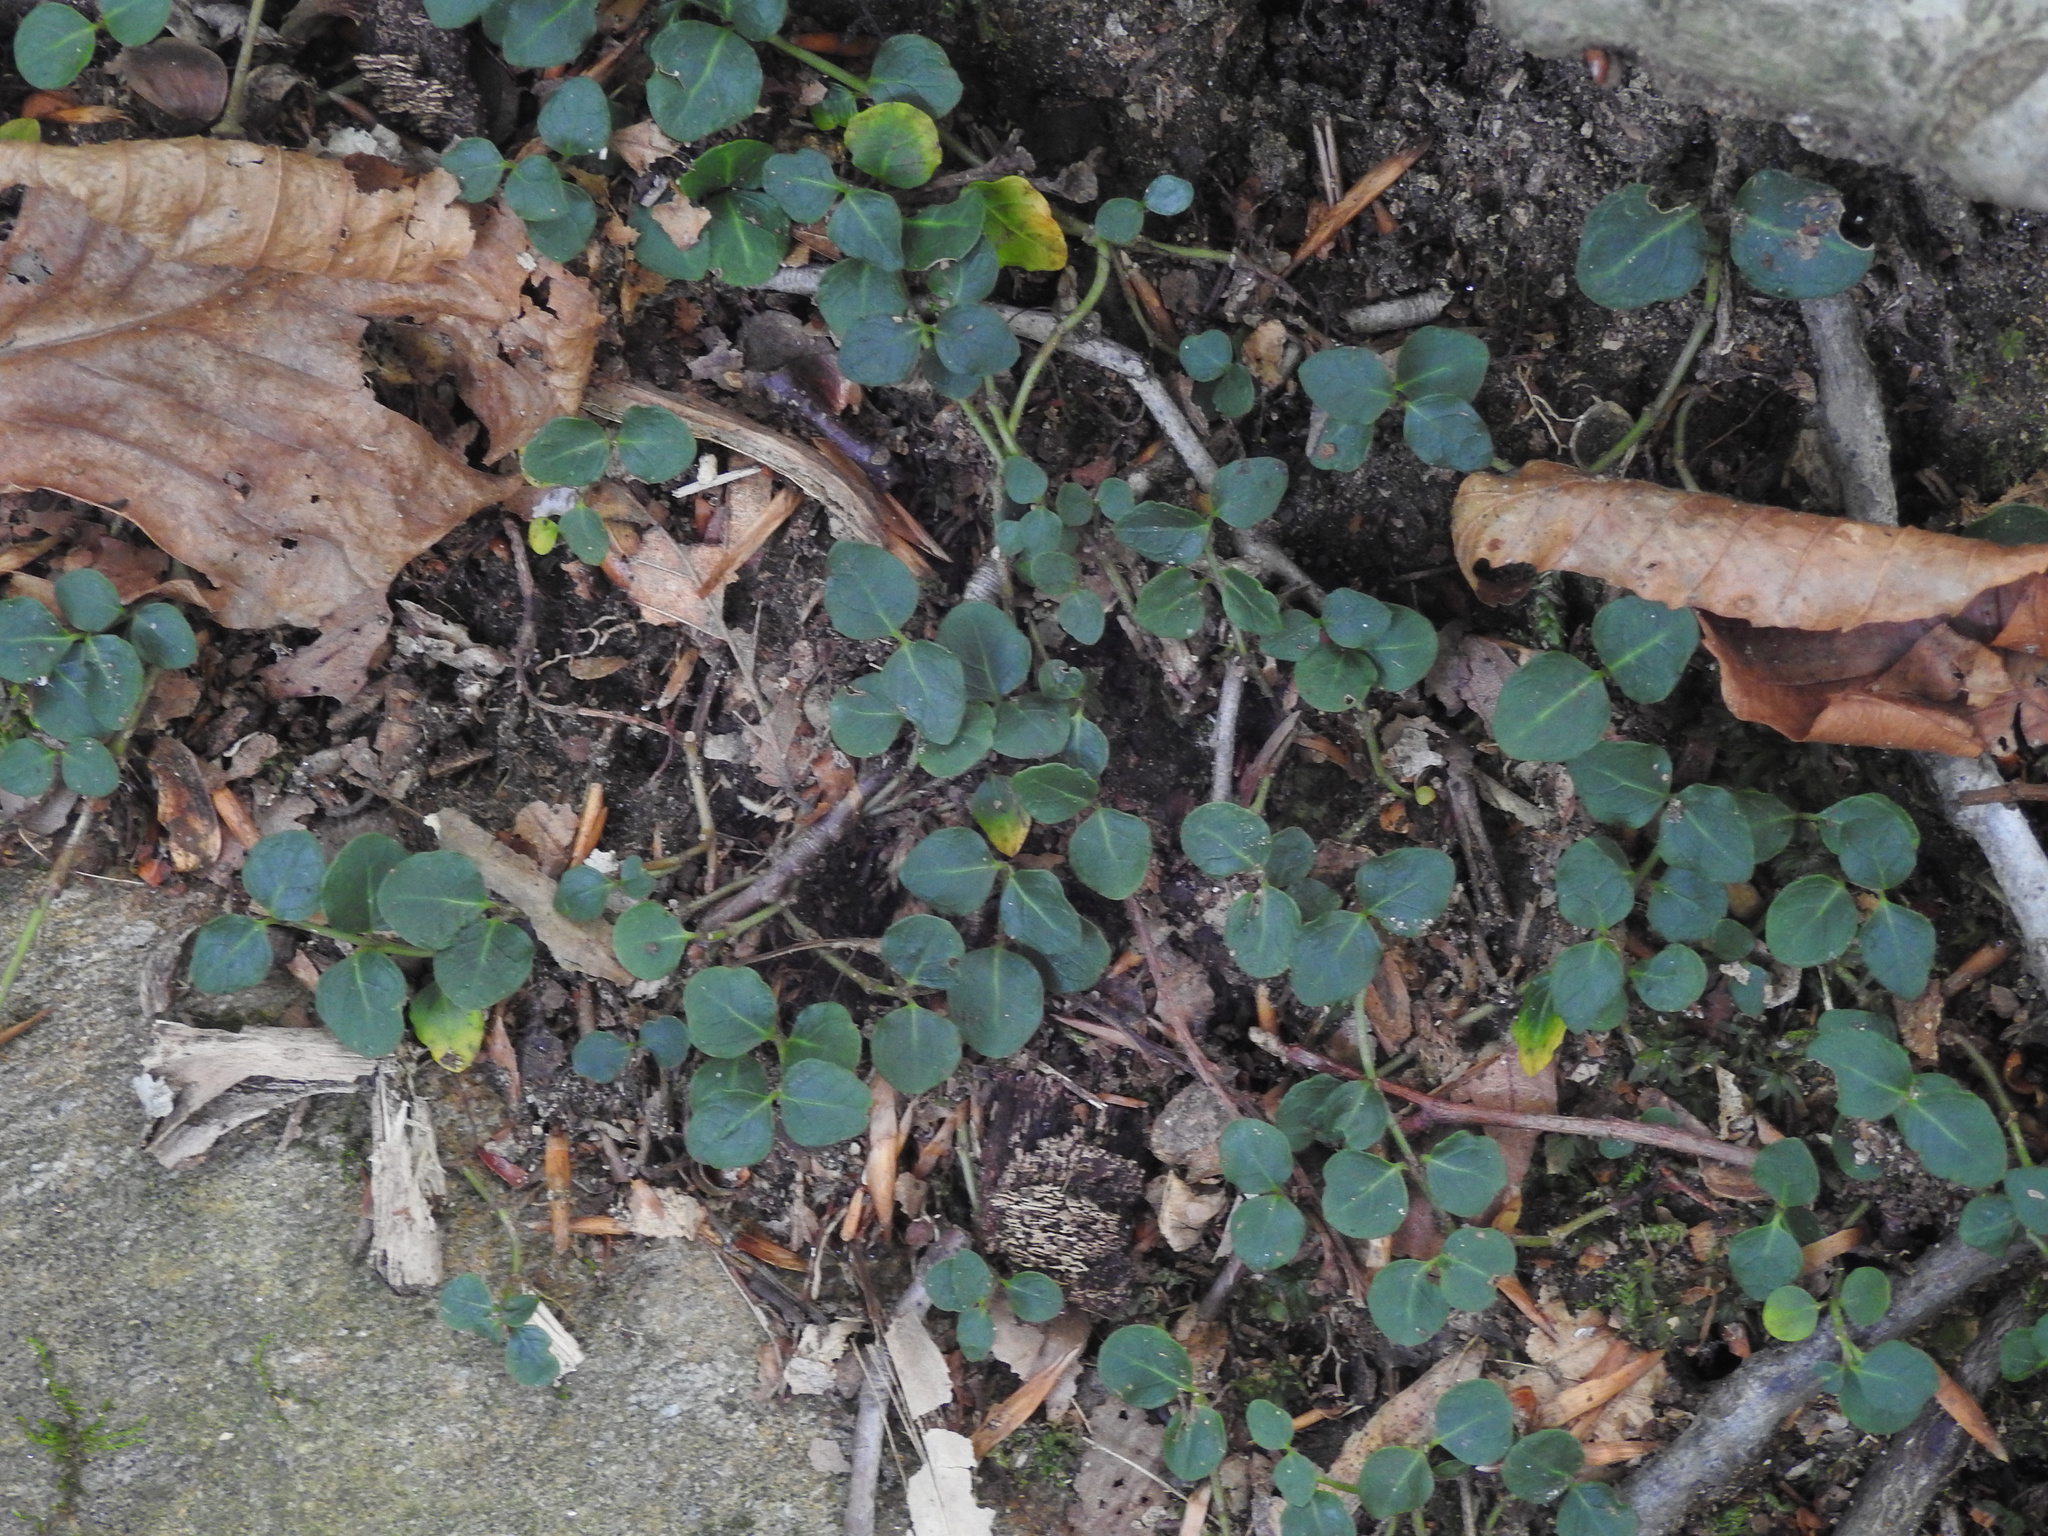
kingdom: Plantae
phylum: Tracheophyta
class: Magnoliopsida
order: Gentianales
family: Rubiaceae
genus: Mitchella
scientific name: Mitchella repens
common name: Partridge-berry
